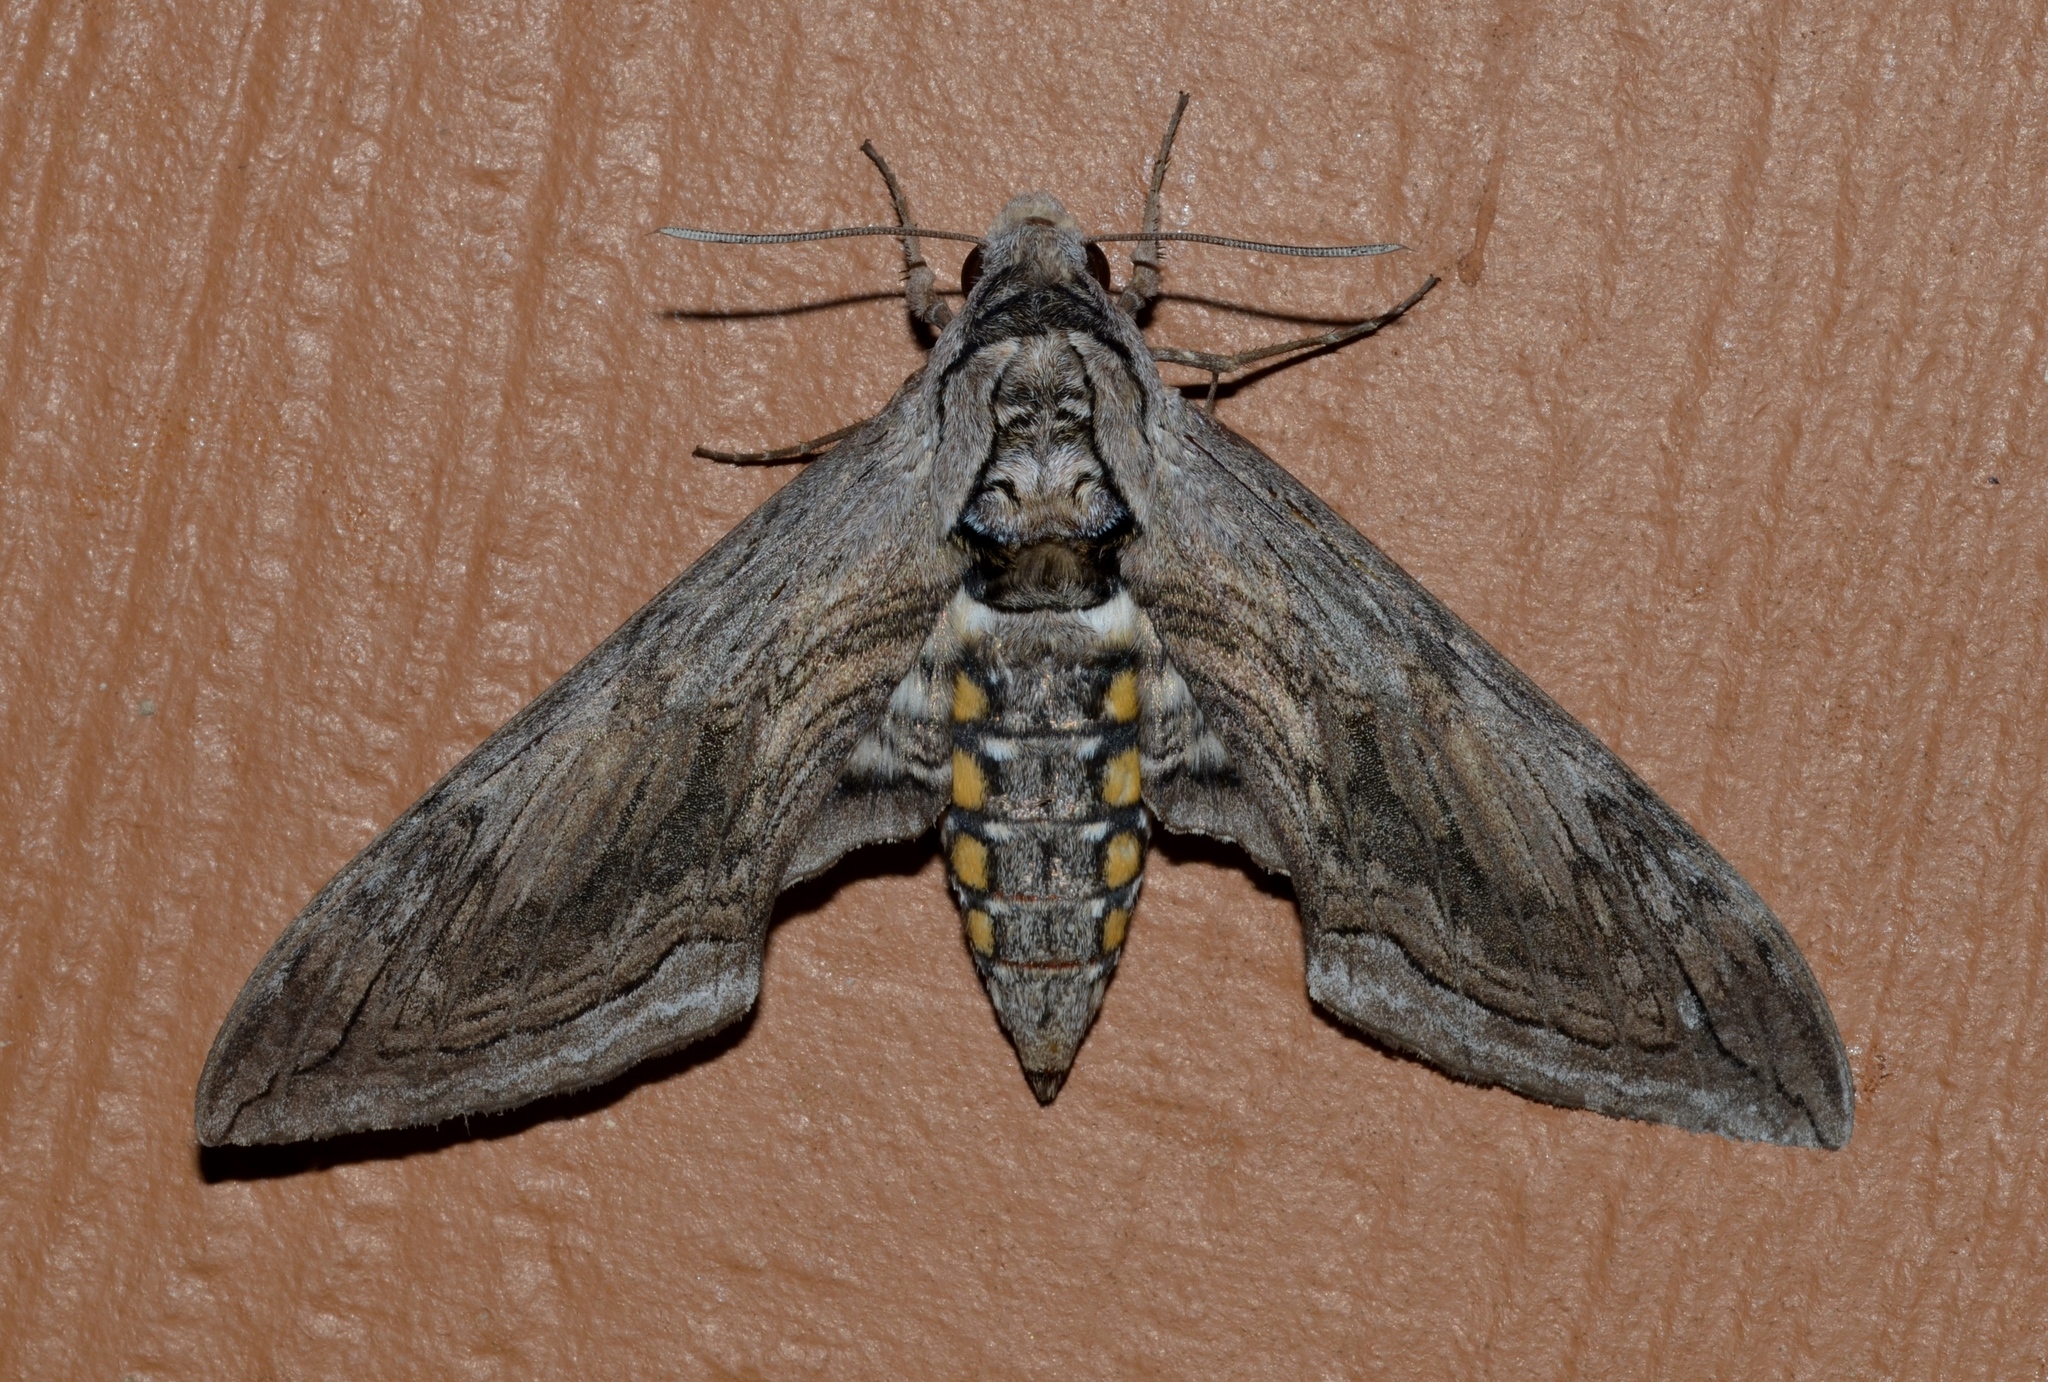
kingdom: Animalia
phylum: Arthropoda
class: Insecta
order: Lepidoptera
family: Sphingidae
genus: Manduca
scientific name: Manduca quinquemaculatus
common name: Five-spotted hawk-moth
